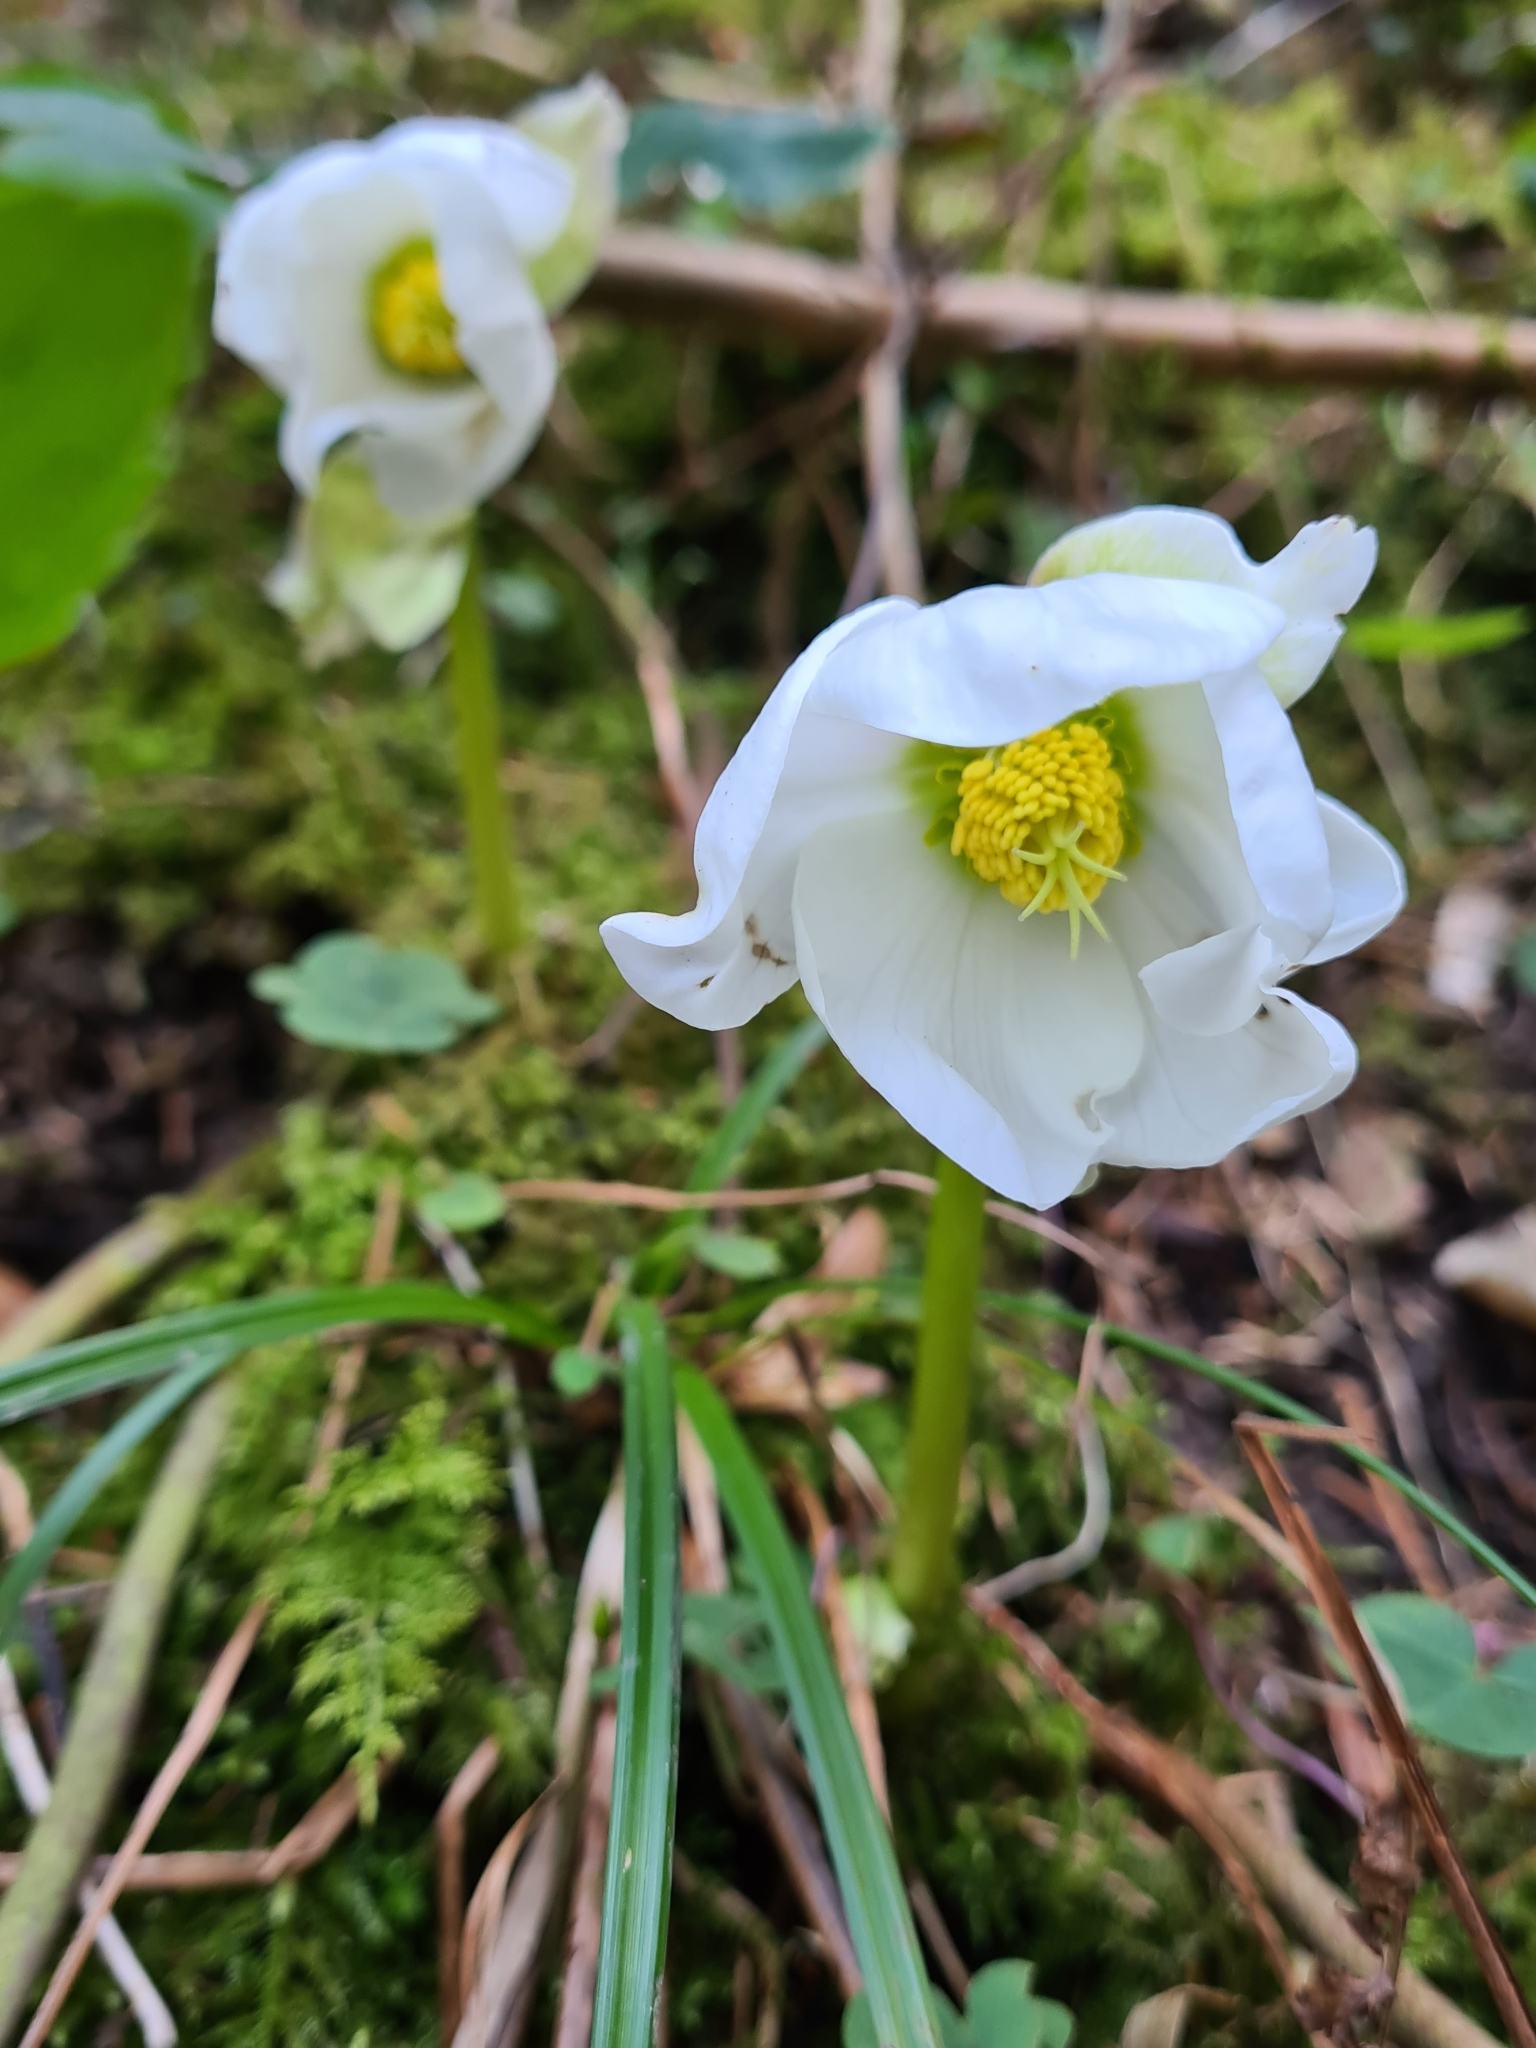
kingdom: Plantae
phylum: Tracheophyta
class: Magnoliopsida
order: Ranunculales
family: Ranunculaceae
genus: Helleborus
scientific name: Helleborus niger
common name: Black hellebore
